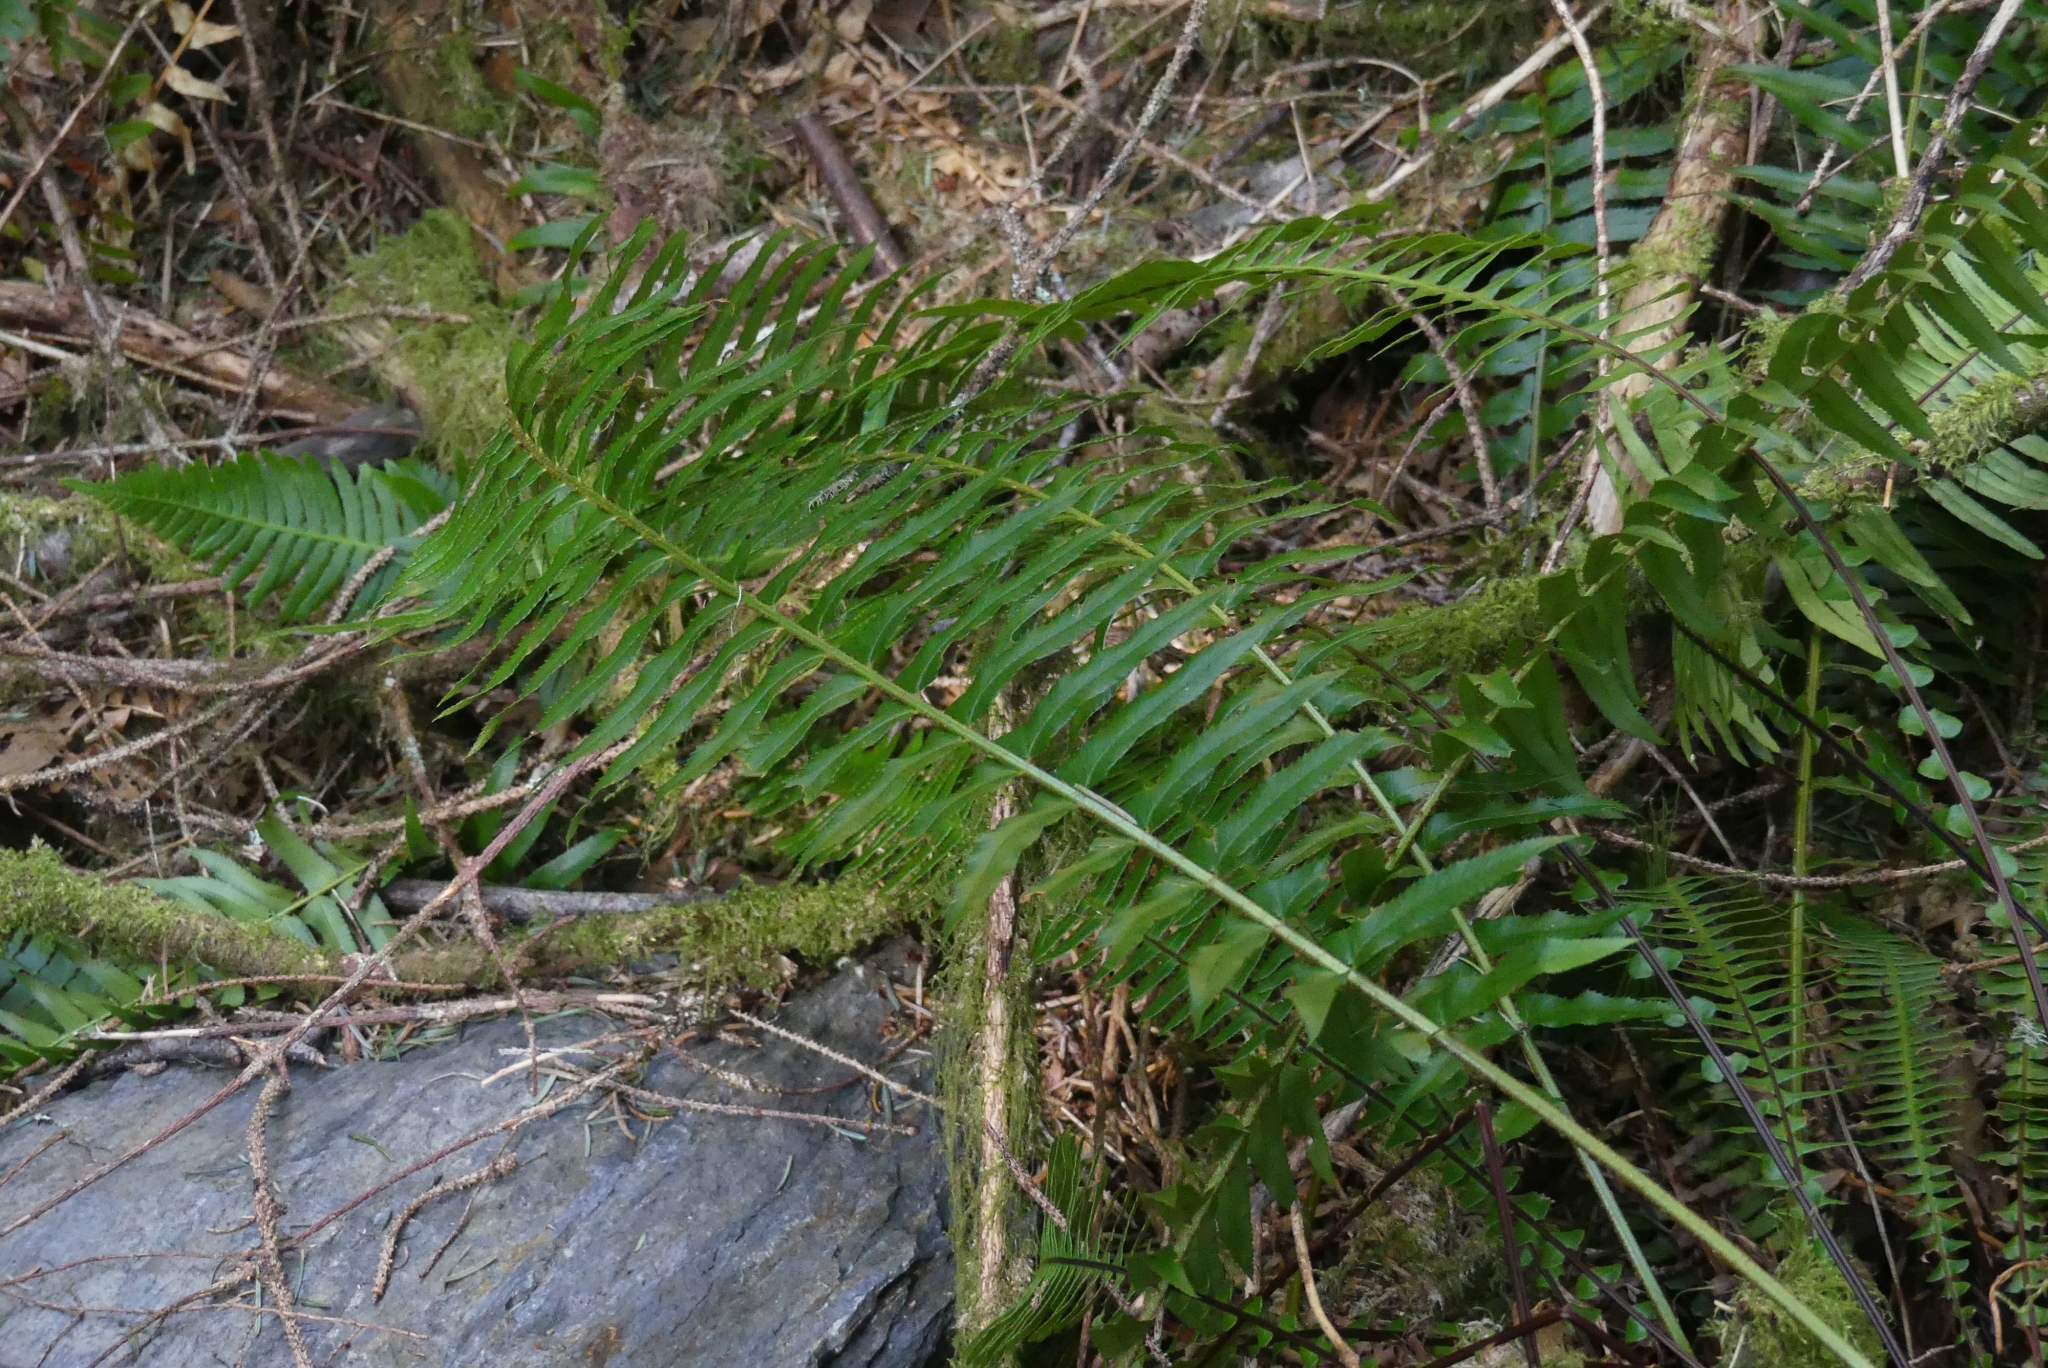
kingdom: Plantae
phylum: Tracheophyta
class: Polypodiopsida
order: Polypodiales
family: Dryopteridaceae
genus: Polystichum
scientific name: Polystichum munitum
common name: Western sword-fern
